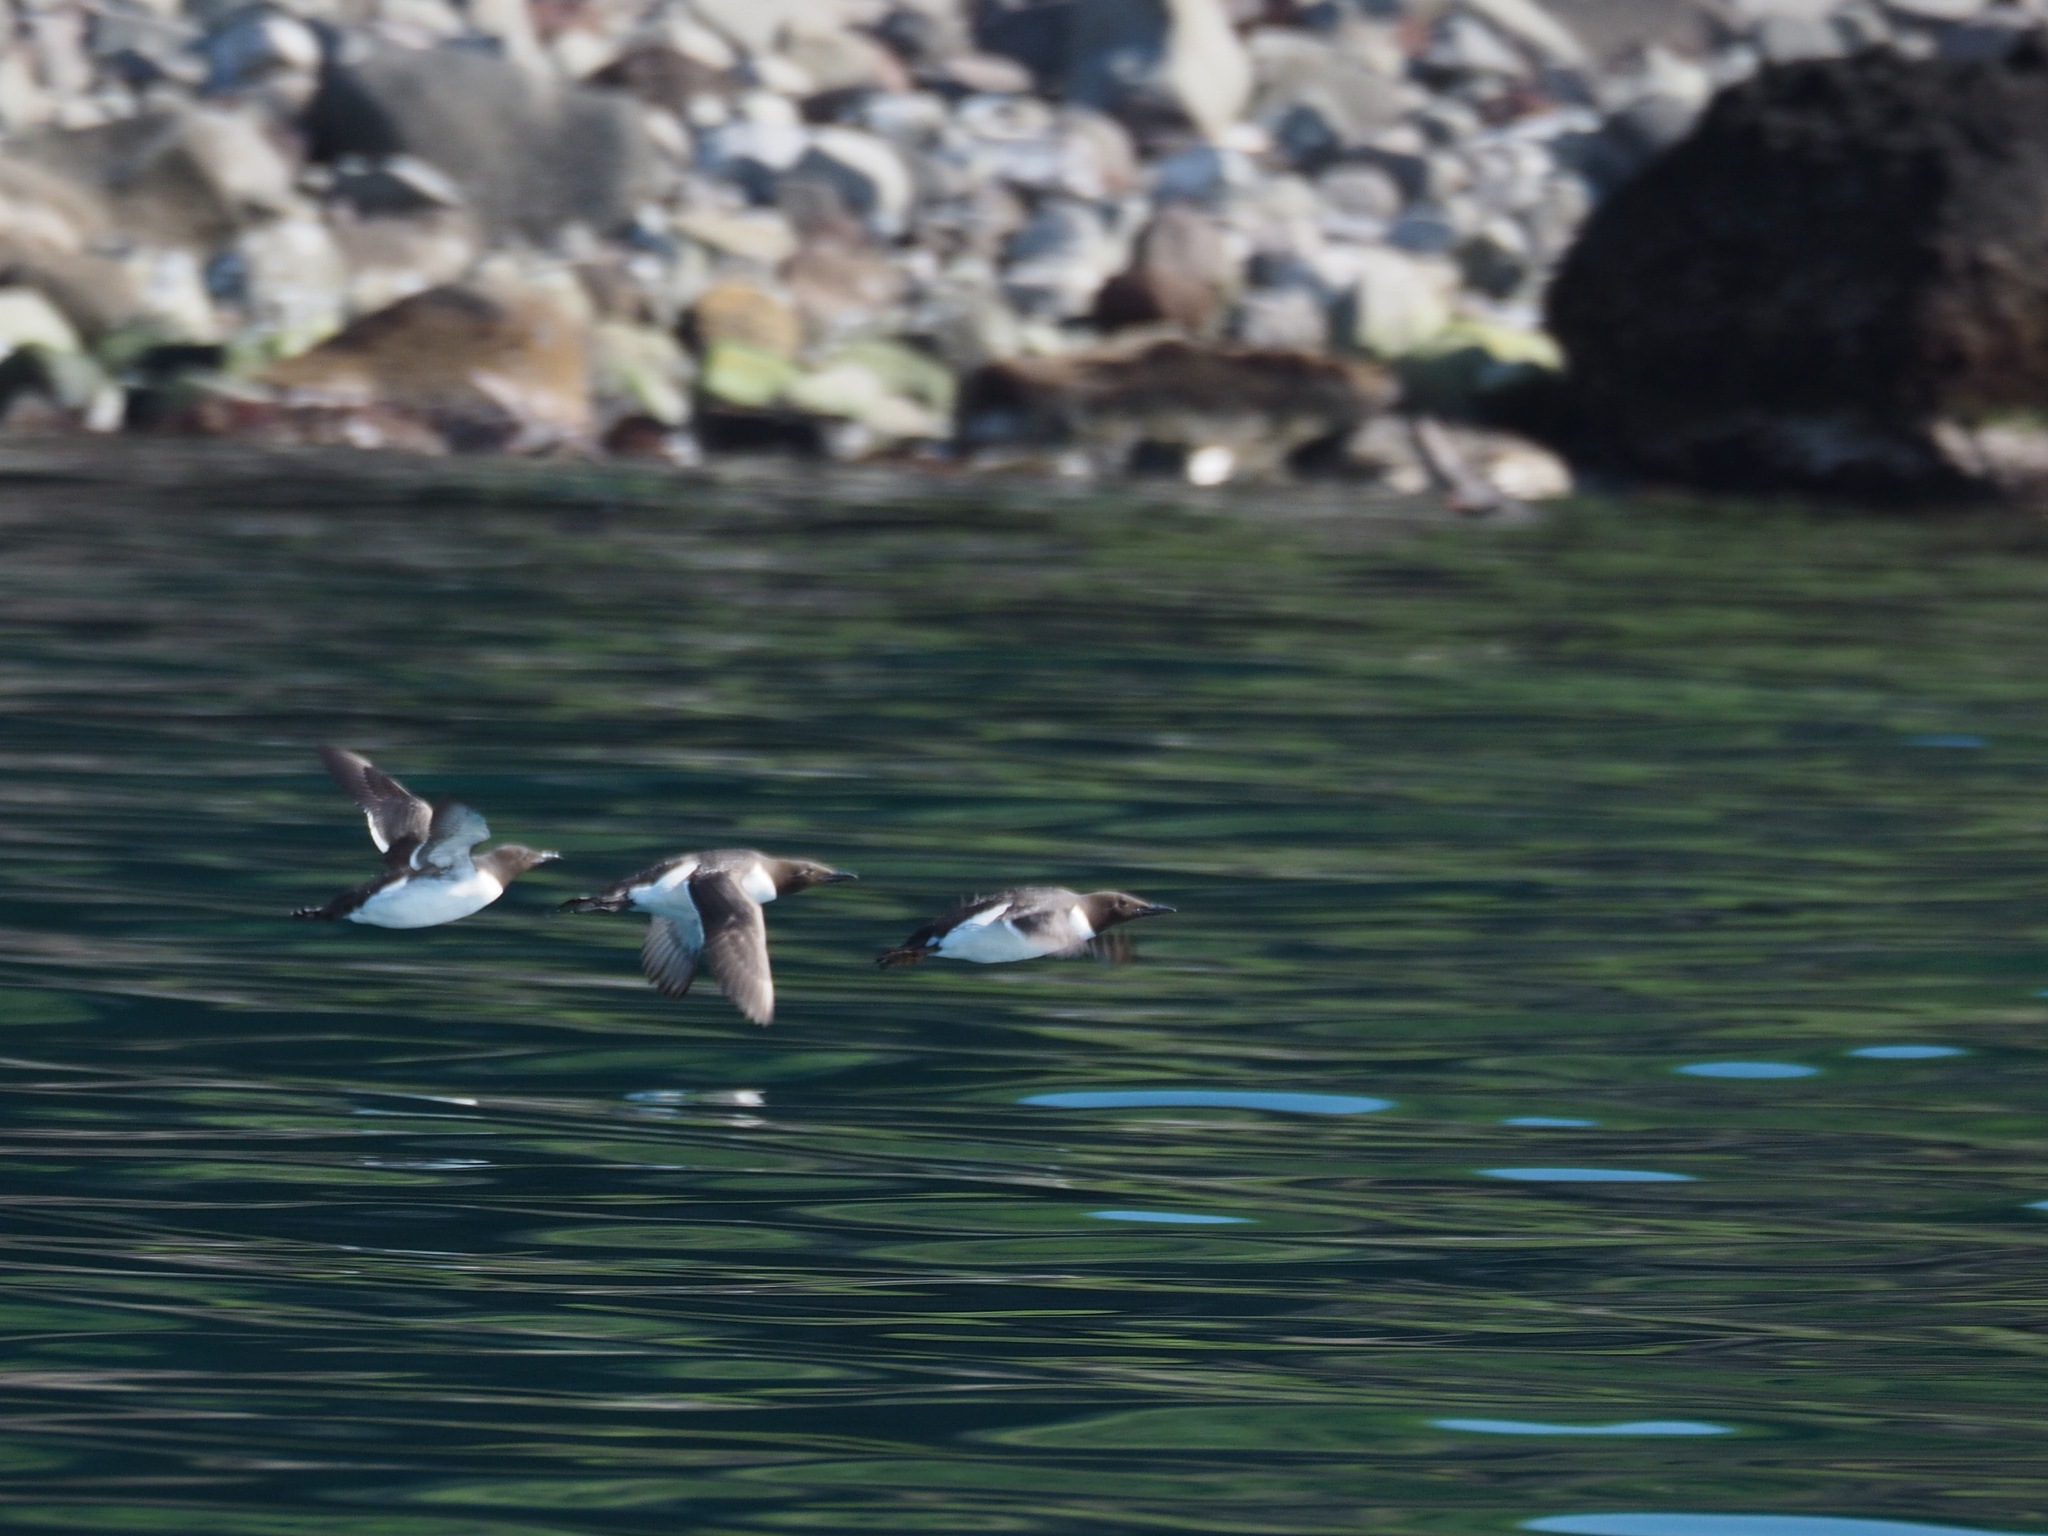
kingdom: Animalia
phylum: Chordata
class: Aves
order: Charadriiformes
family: Alcidae
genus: Uria
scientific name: Uria aalge
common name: Common murre
